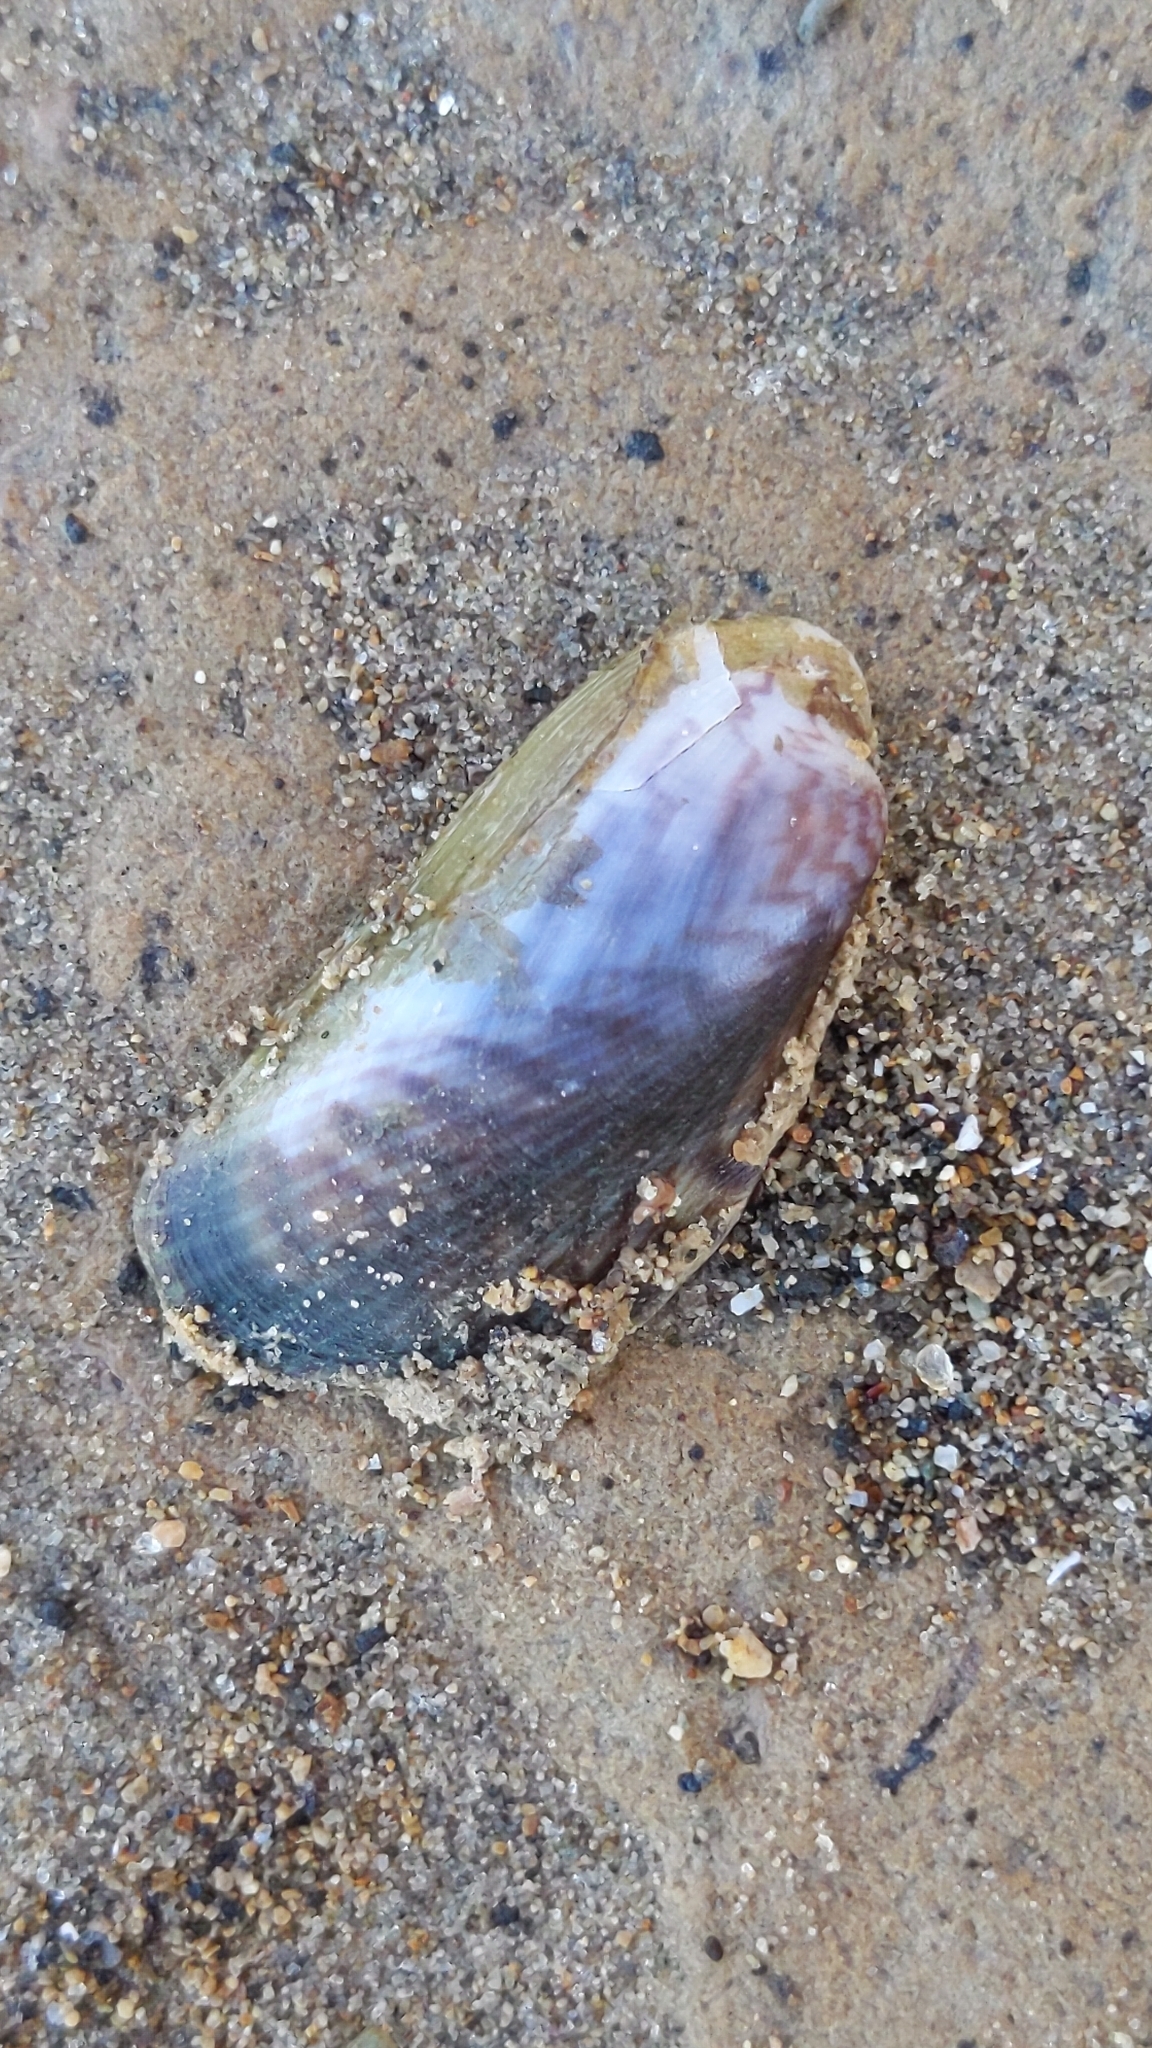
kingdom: Animalia
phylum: Mollusca
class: Bivalvia
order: Mytilida
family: Mytilidae
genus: Arcuatula
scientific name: Arcuatula senhousia
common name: Asian mussel
